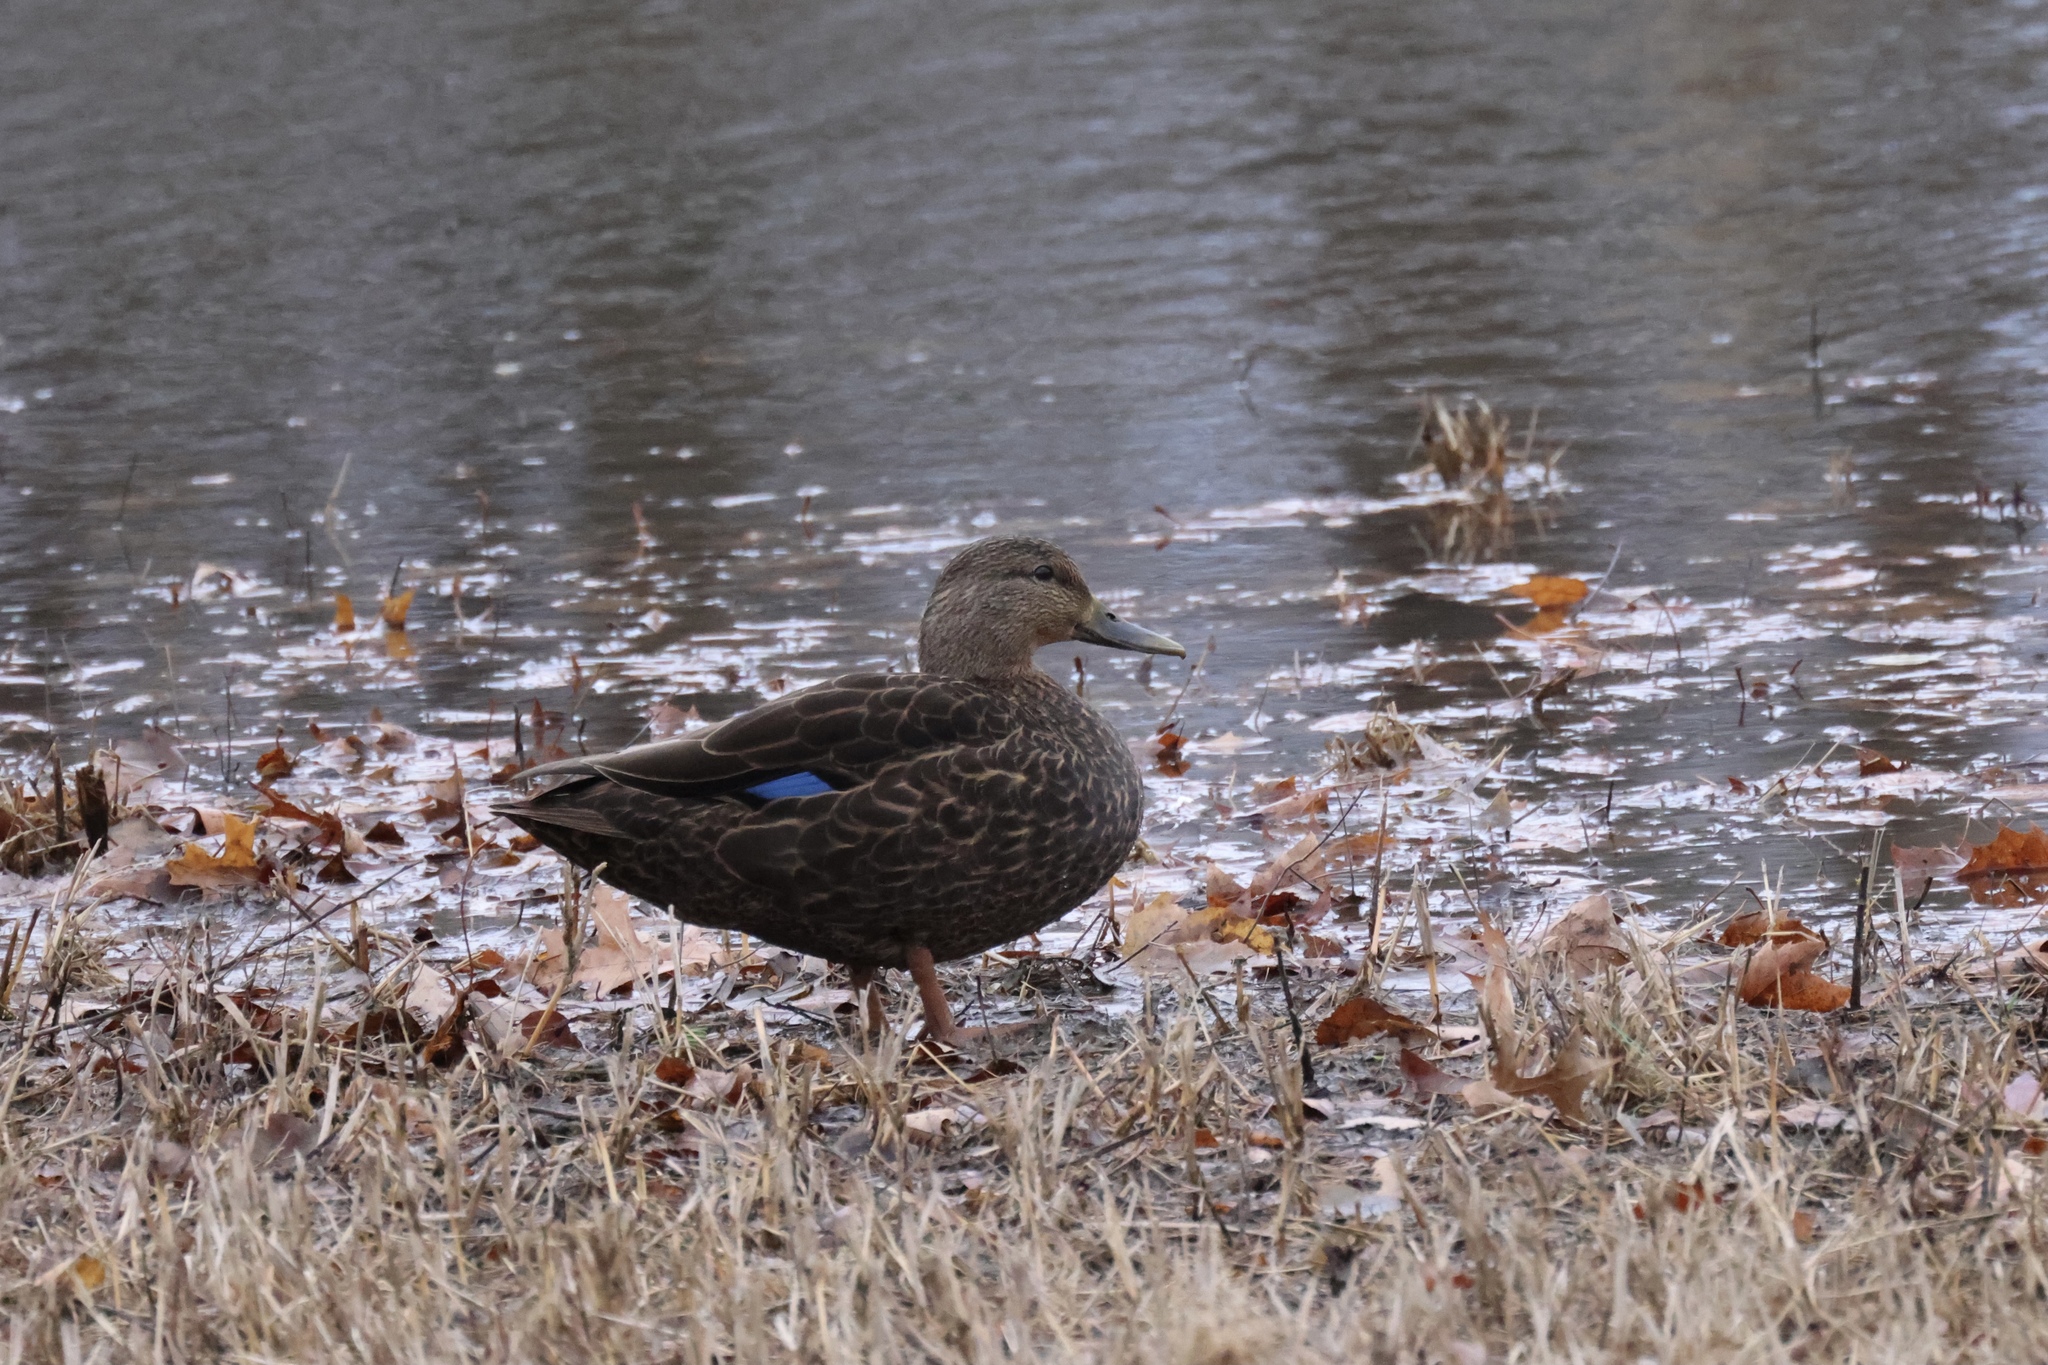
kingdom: Animalia
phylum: Chordata
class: Aves
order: Anseriformes
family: Anatidae
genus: Anas
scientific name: Anas rubripes
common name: American black duck
